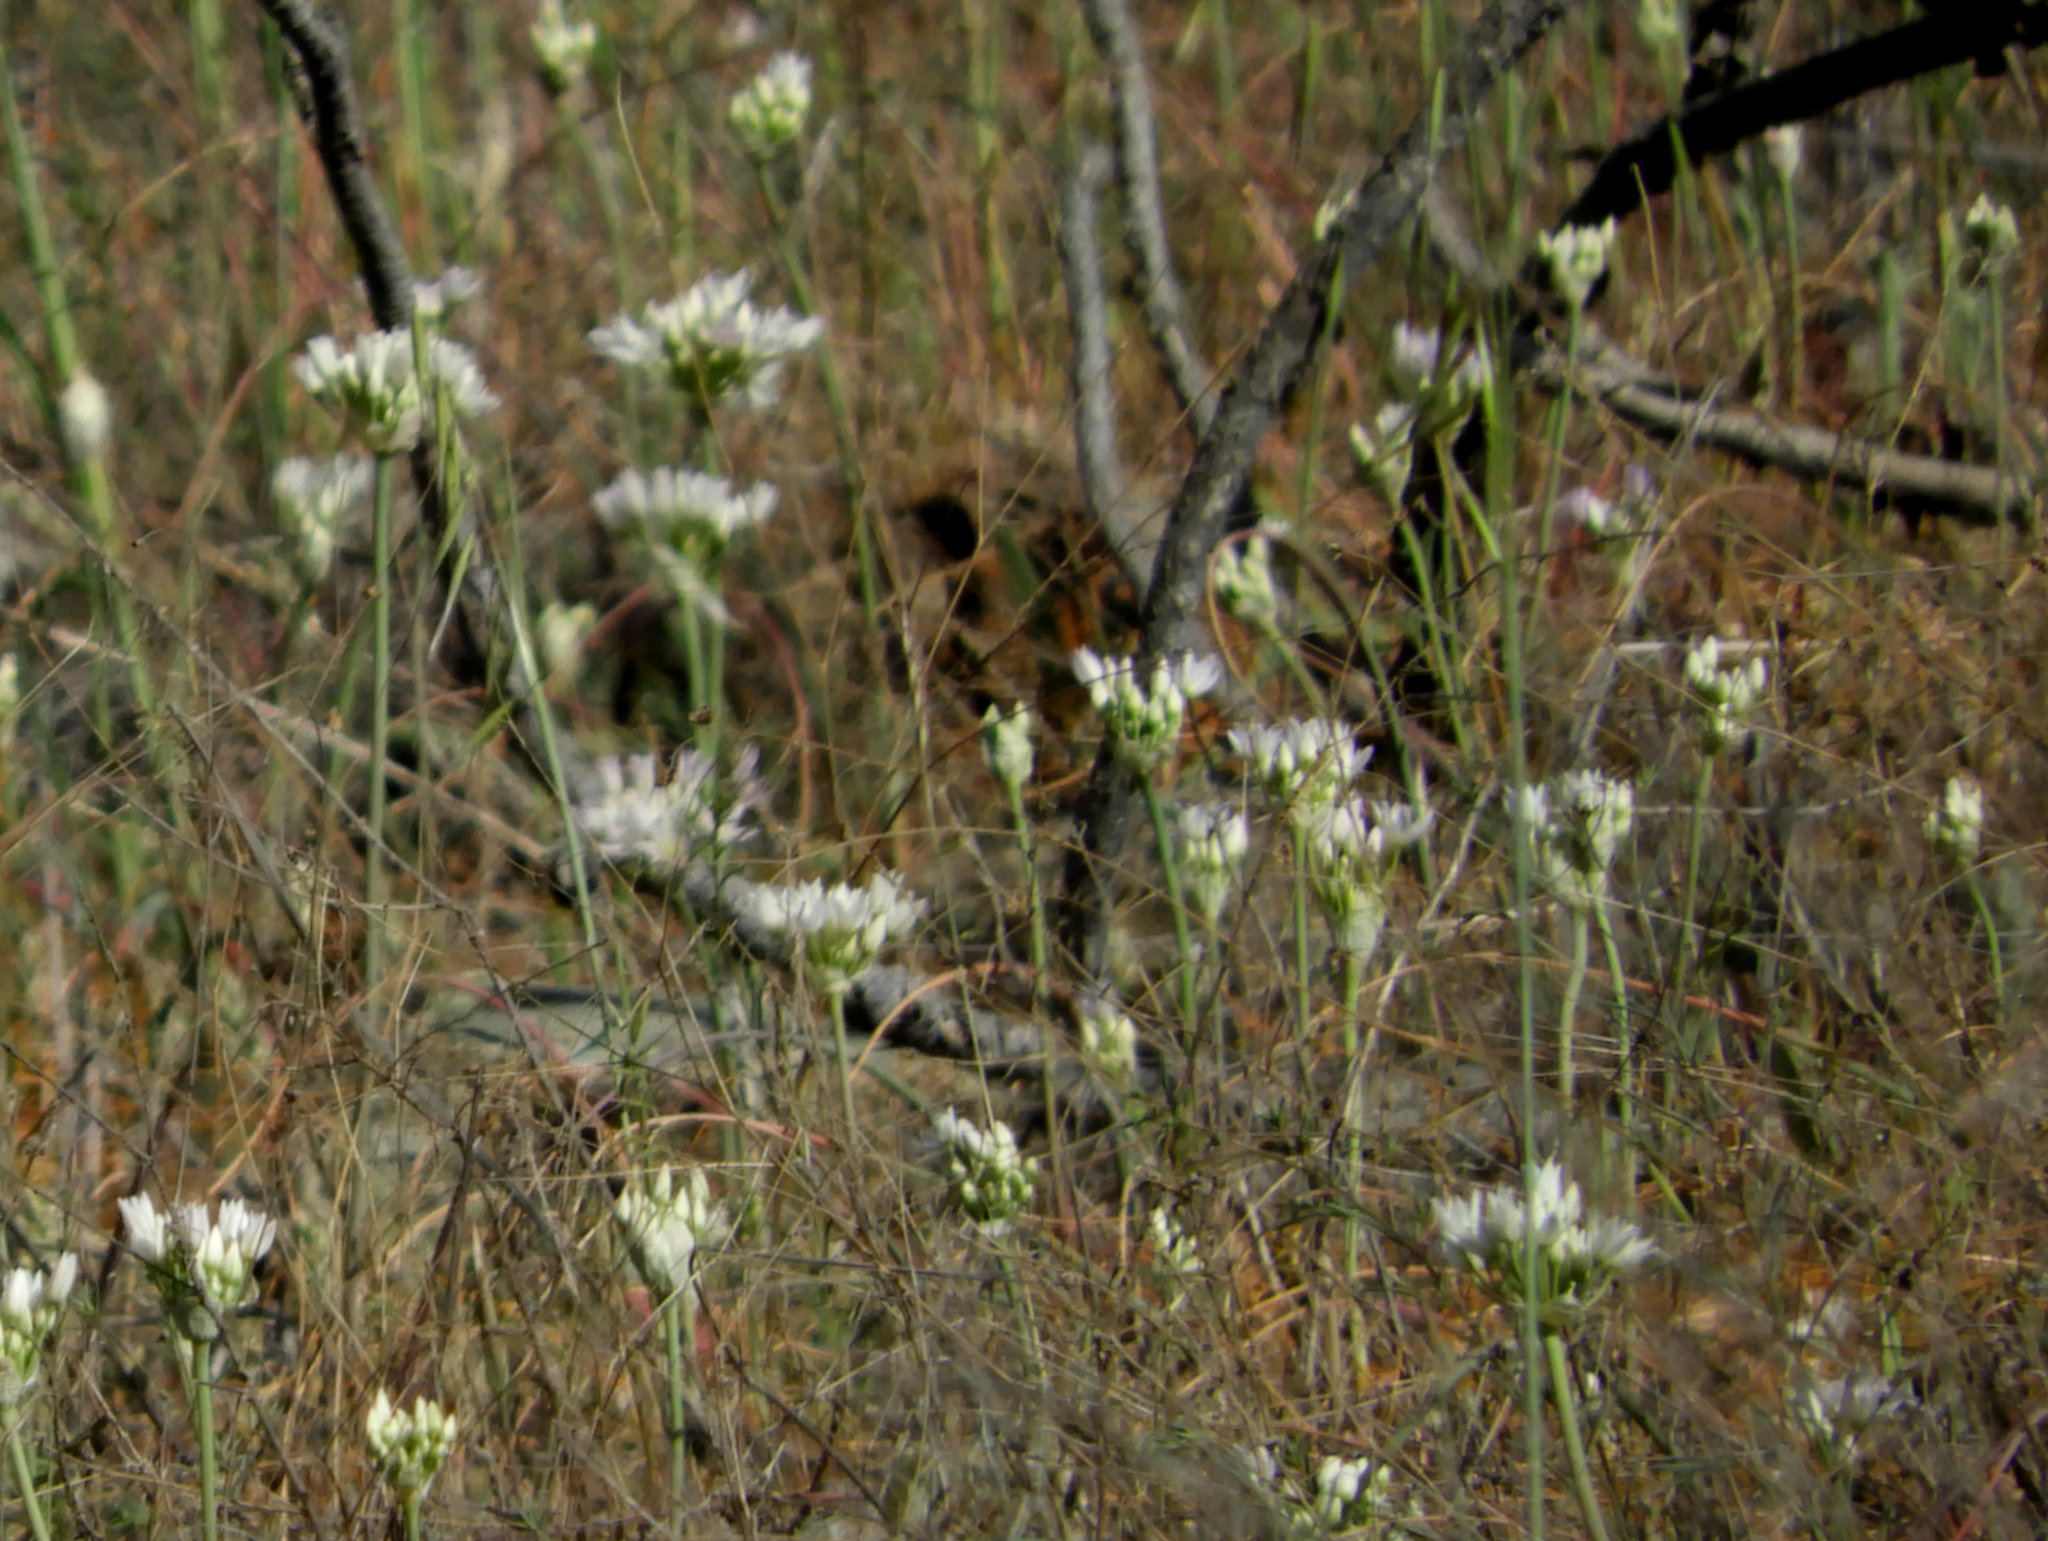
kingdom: Plantae
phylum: Tracheophyta
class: Liliopsida
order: Asparagales
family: Amaryllidaceae
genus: Allium
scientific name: Allium amplectens
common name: Narrow-leaved onion
